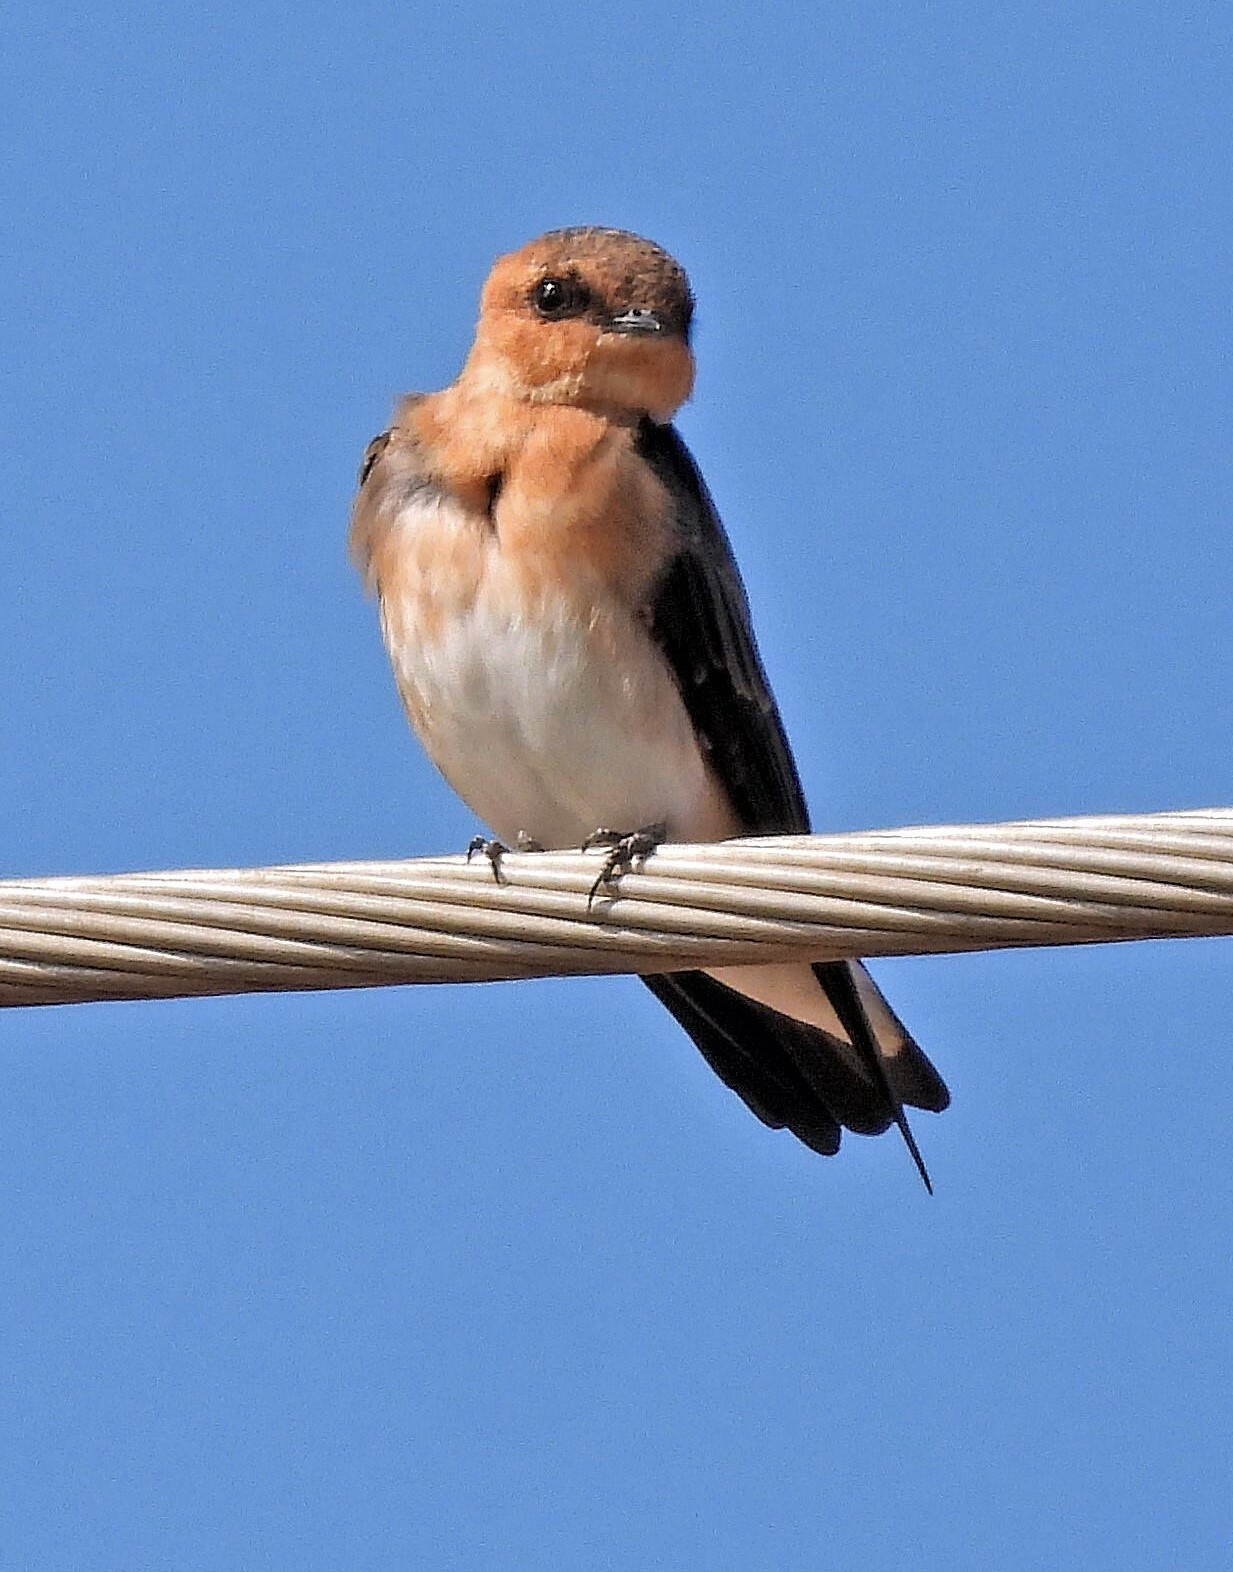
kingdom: Animalia
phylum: Chordata
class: Aves
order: Passeriformes
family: Hirundinidae
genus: Alopochelidon
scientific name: Alopochelidon fucata
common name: Tawny-headed swallow
